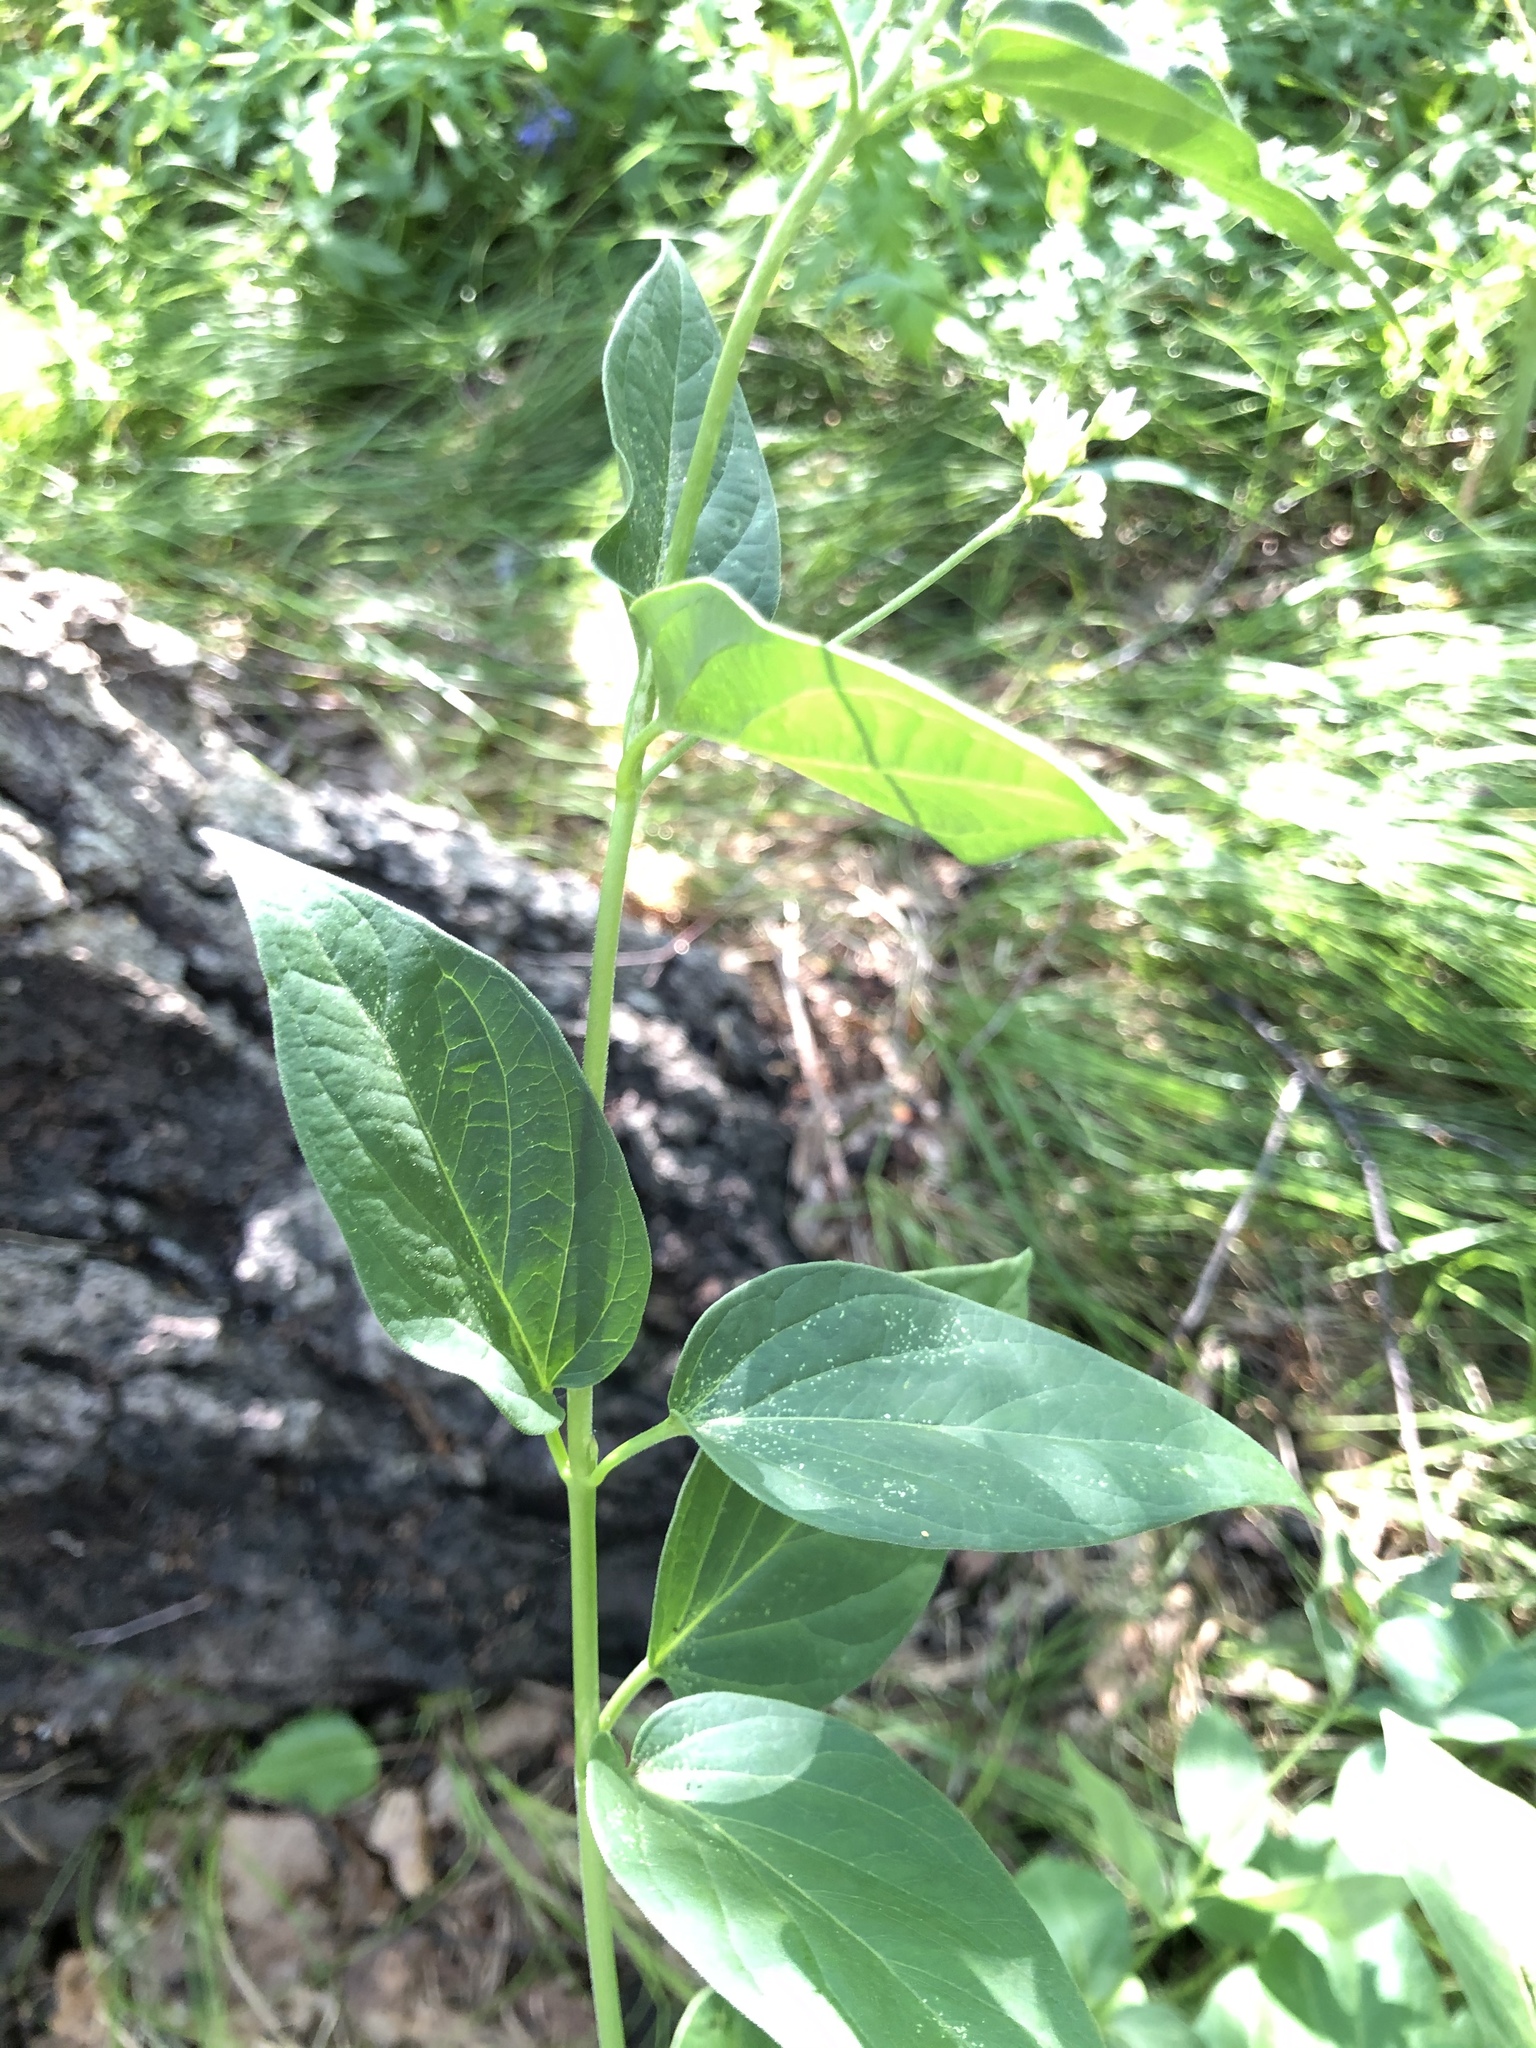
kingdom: Plantae
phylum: Tracheophyta
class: Magnoliopsida
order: Gentianales
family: Apocynaceae
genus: Vincetoxicum
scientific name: Vincetoxicum hirundinaria
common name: White swallowwort
